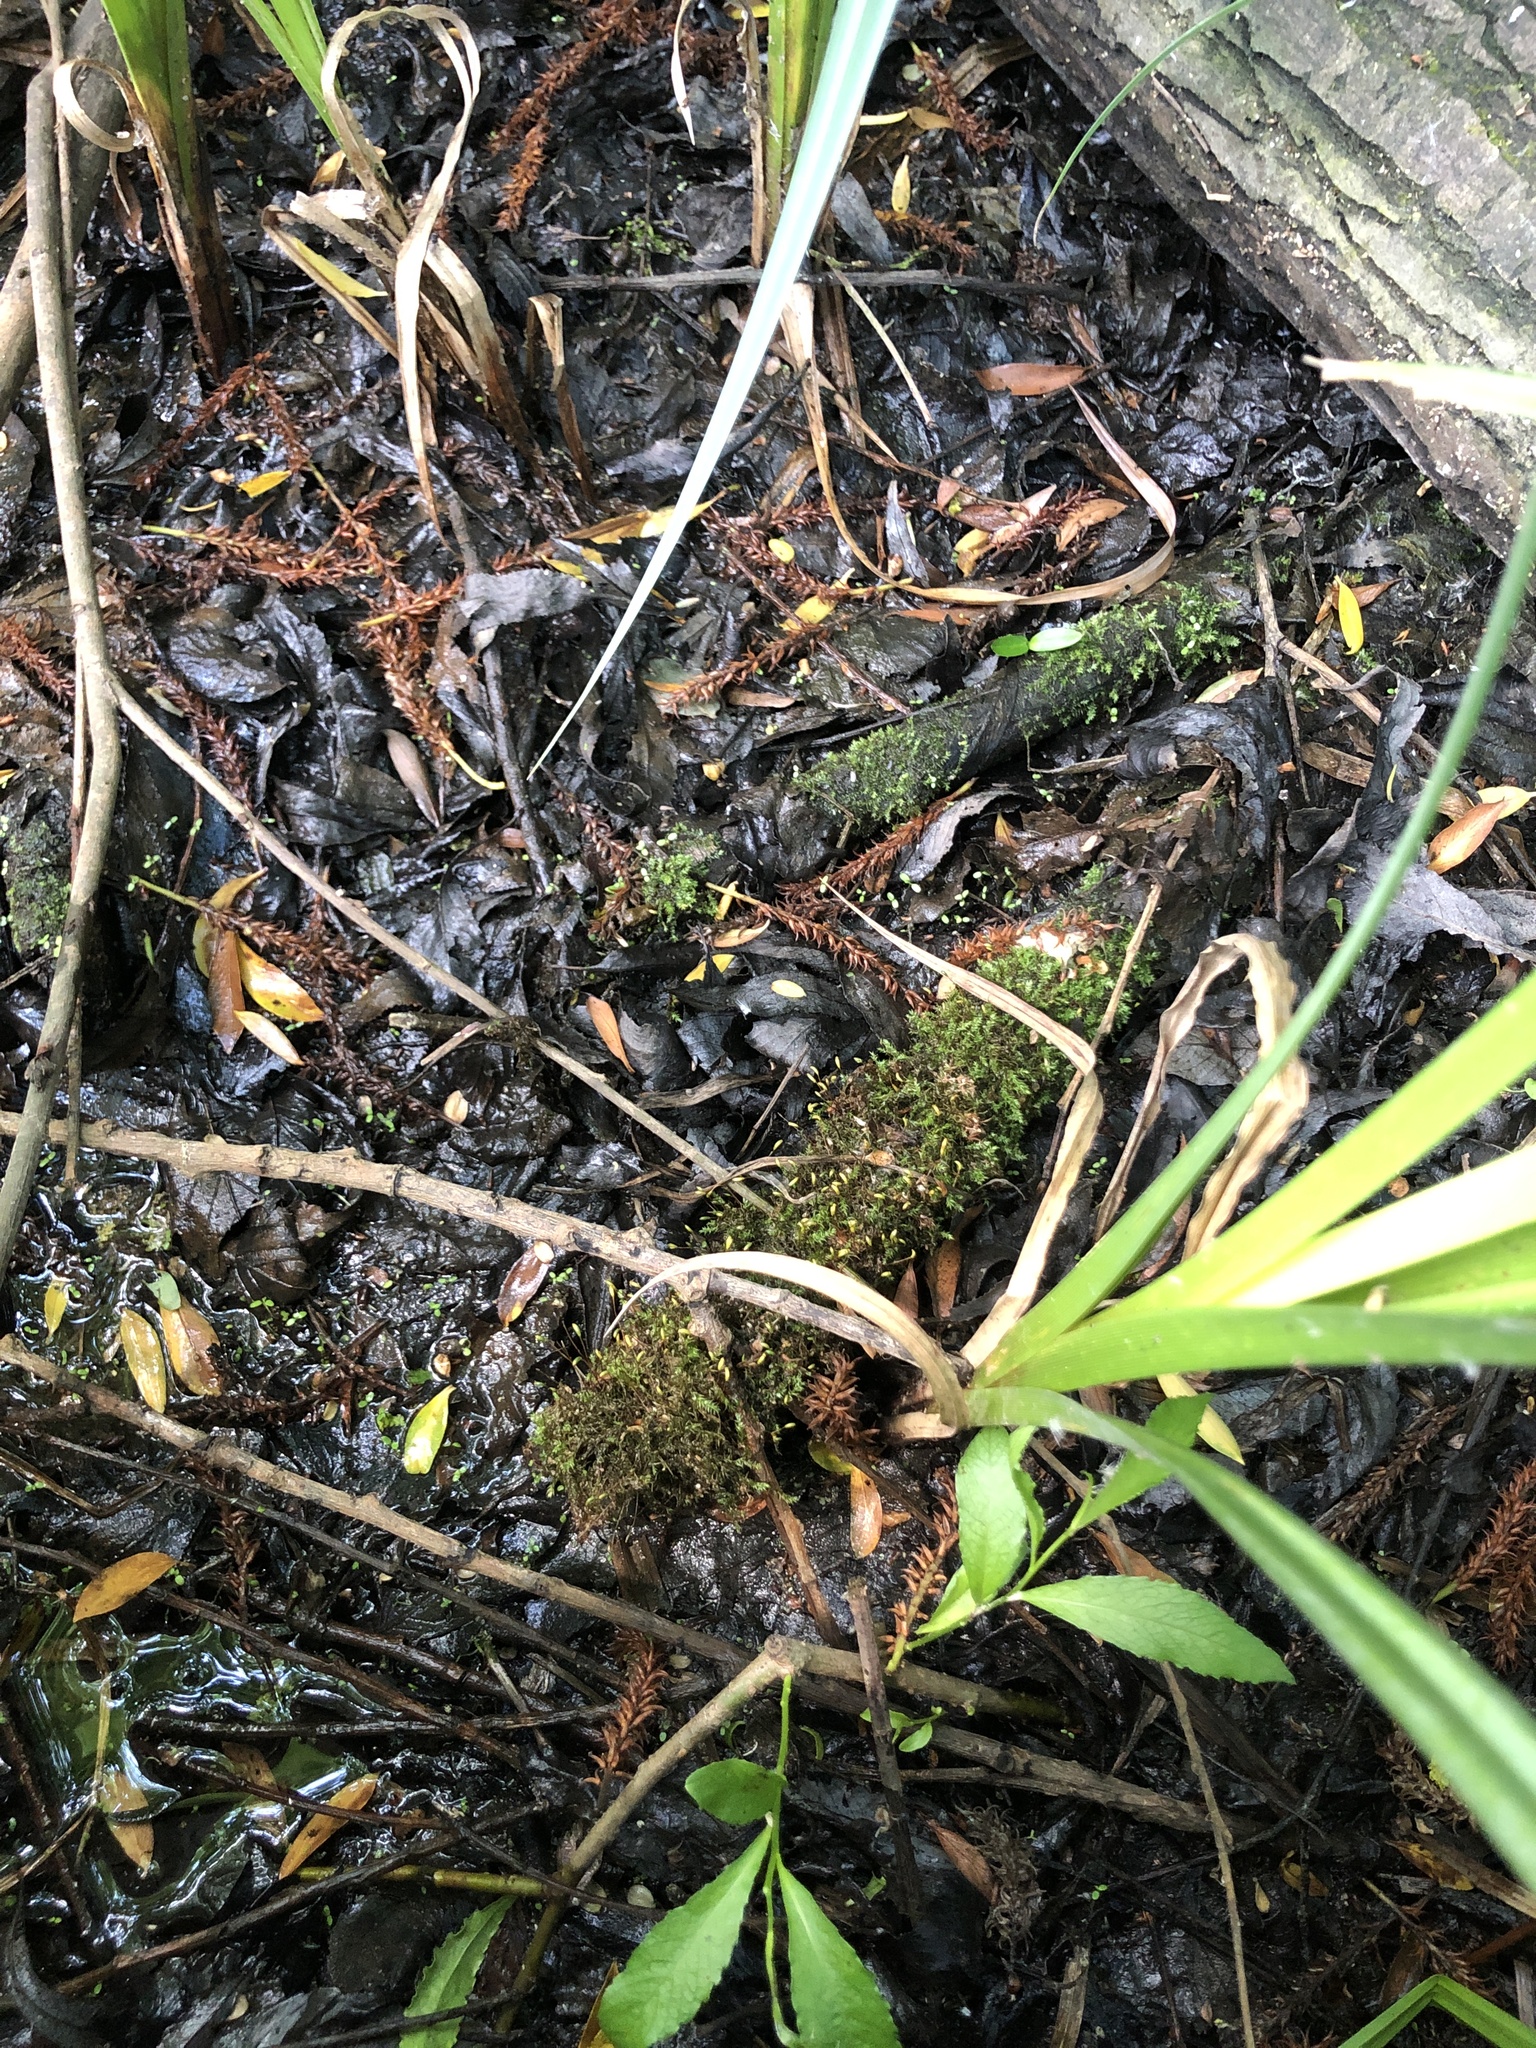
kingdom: Plantae
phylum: Bryophyta
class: Bryopsida
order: Hypnales
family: Amblystegiaceae
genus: Leptodictyum
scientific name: Leptodictyum riparium
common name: Riparian feather moss
